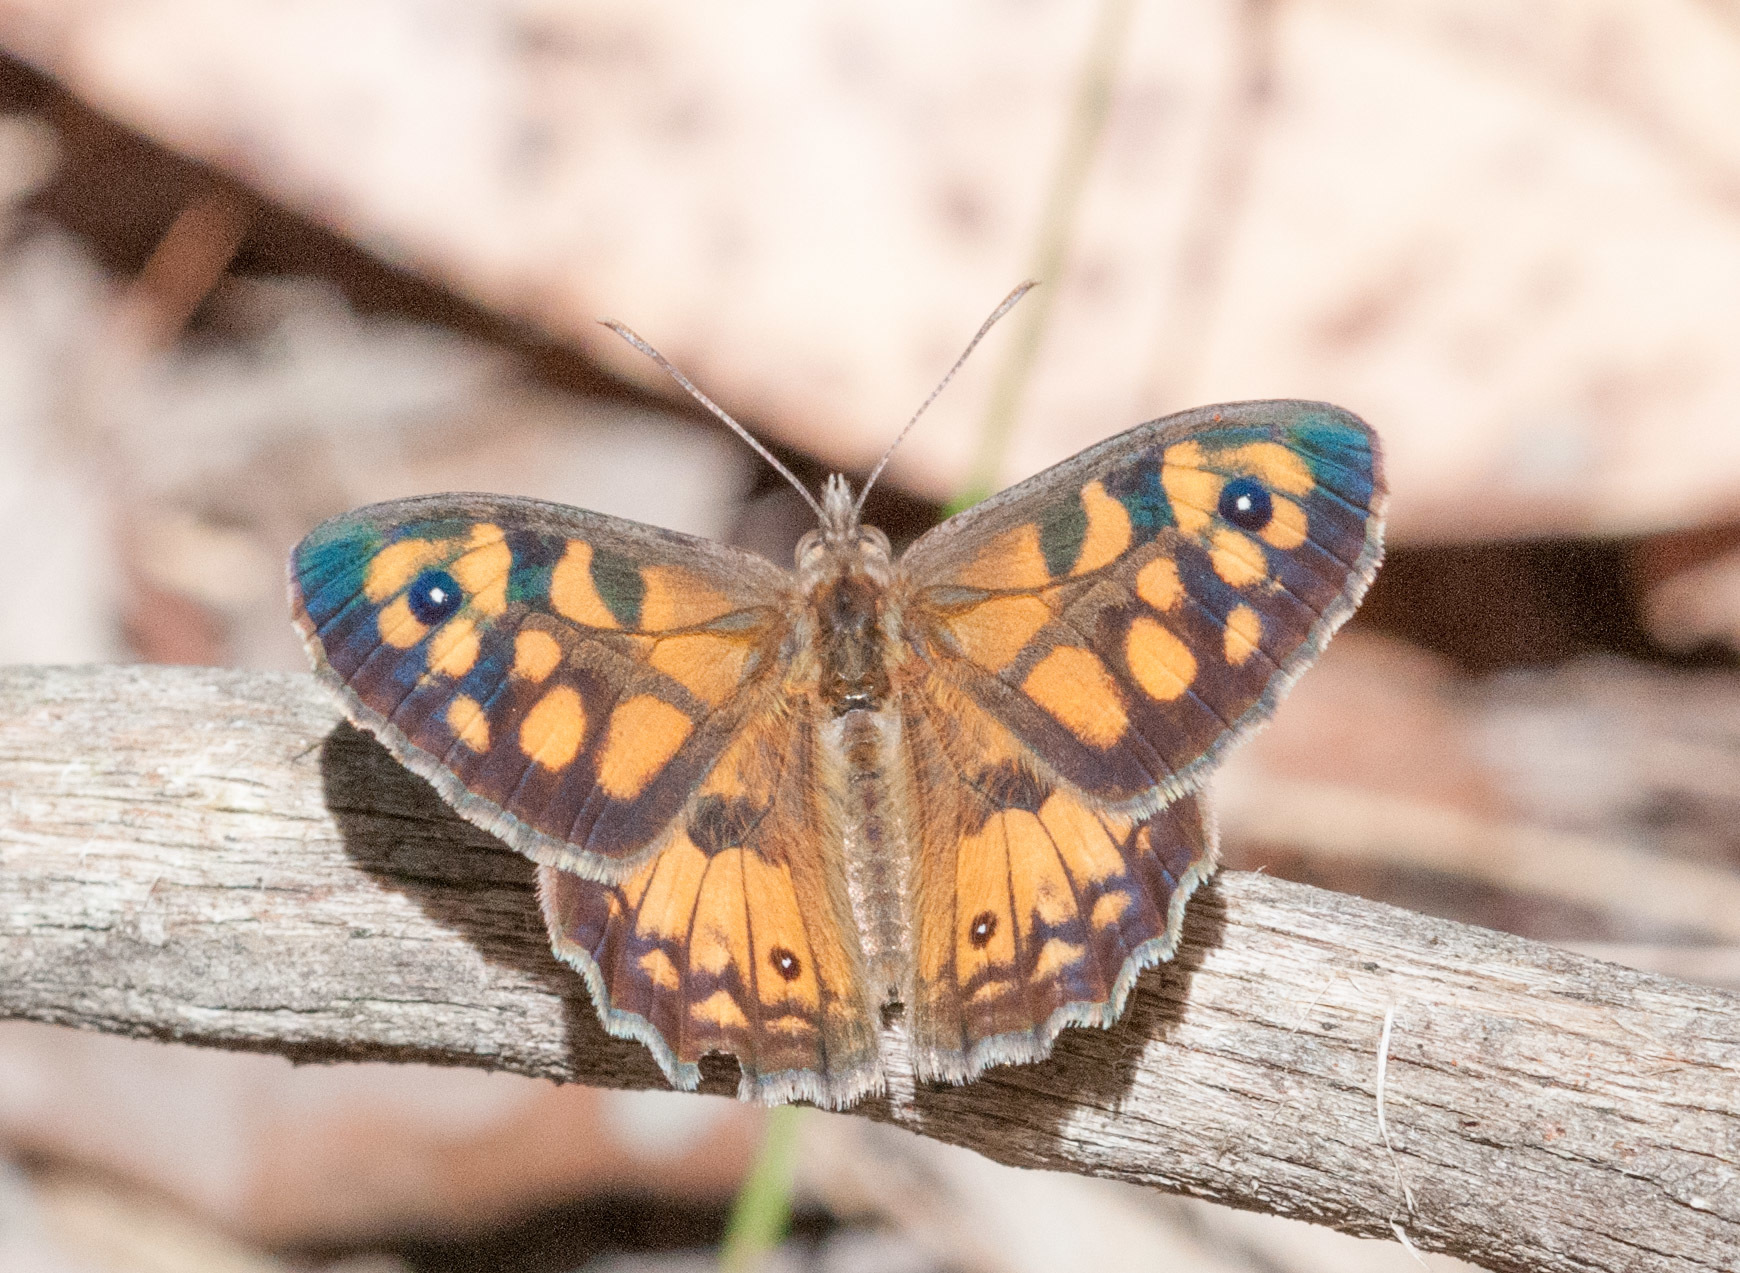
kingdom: Animalia
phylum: Arthropoda
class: Insecta
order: Lepidoptera
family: Nymphalidae
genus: Geitoneura
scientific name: Geitoneura klugii
